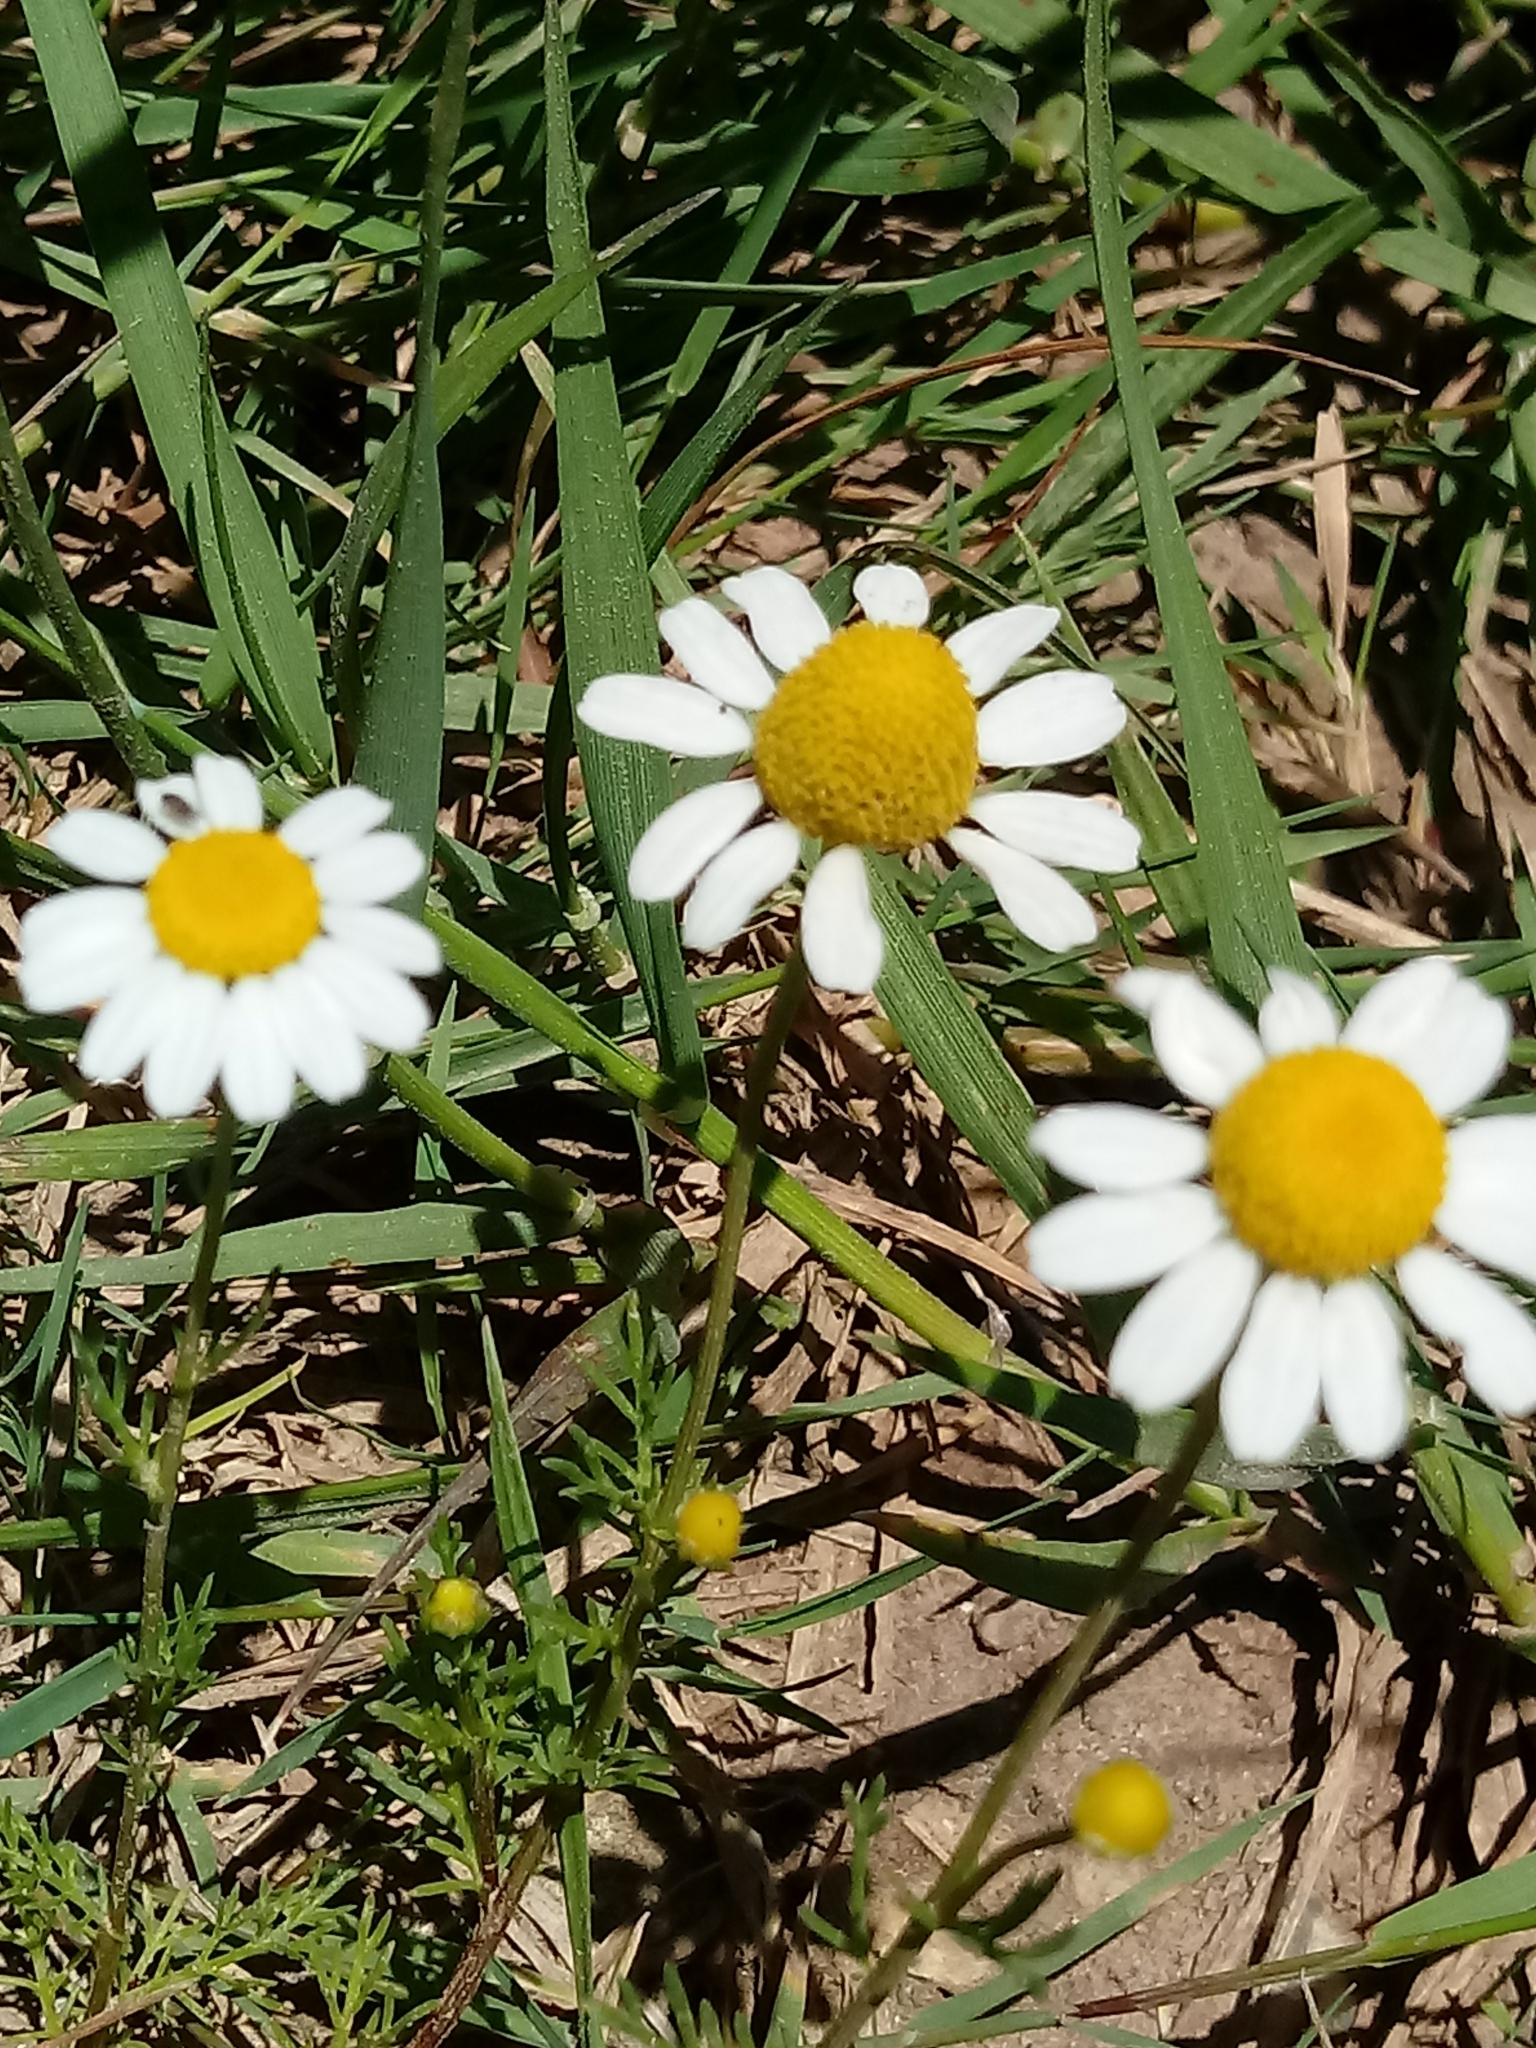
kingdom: Plantae
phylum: Tracheophyta
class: Magnoliopsida
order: Asterales
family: Asteraceae
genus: Matricaria
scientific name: Matricaria chamomilla
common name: Scented mayweed
